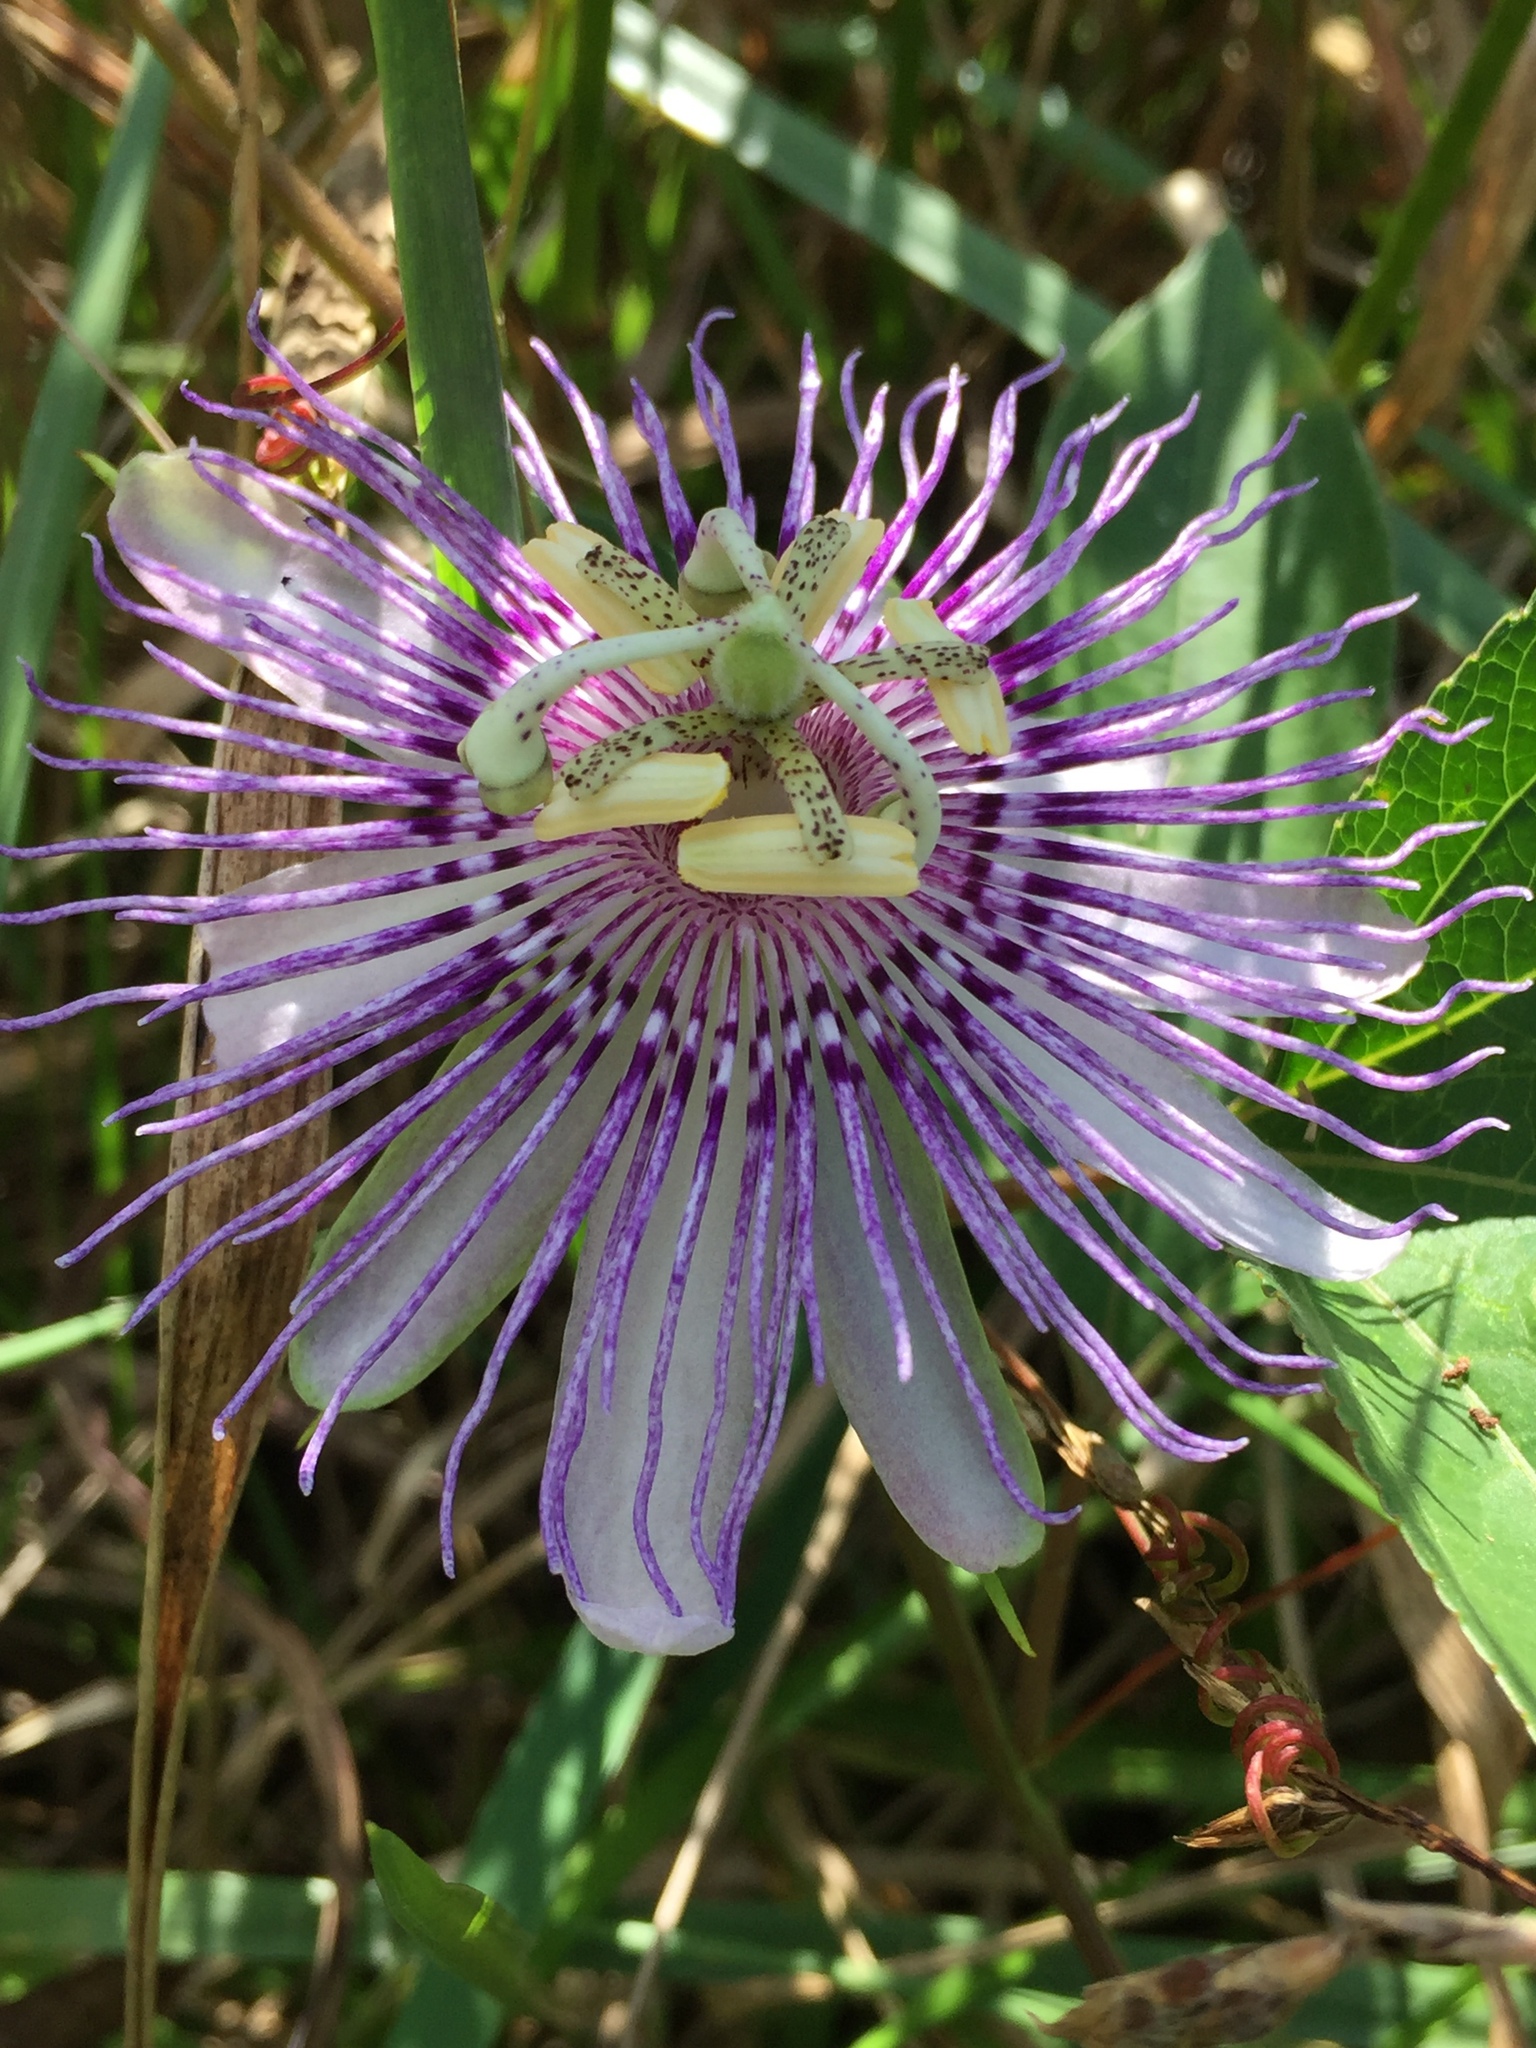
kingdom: Plantae
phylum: Tracheophyta
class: Magnoliopsida
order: Malpighiales
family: Passifloraceae
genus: Passiflora
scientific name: Passiflora incarnata
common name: Apricot-vine
